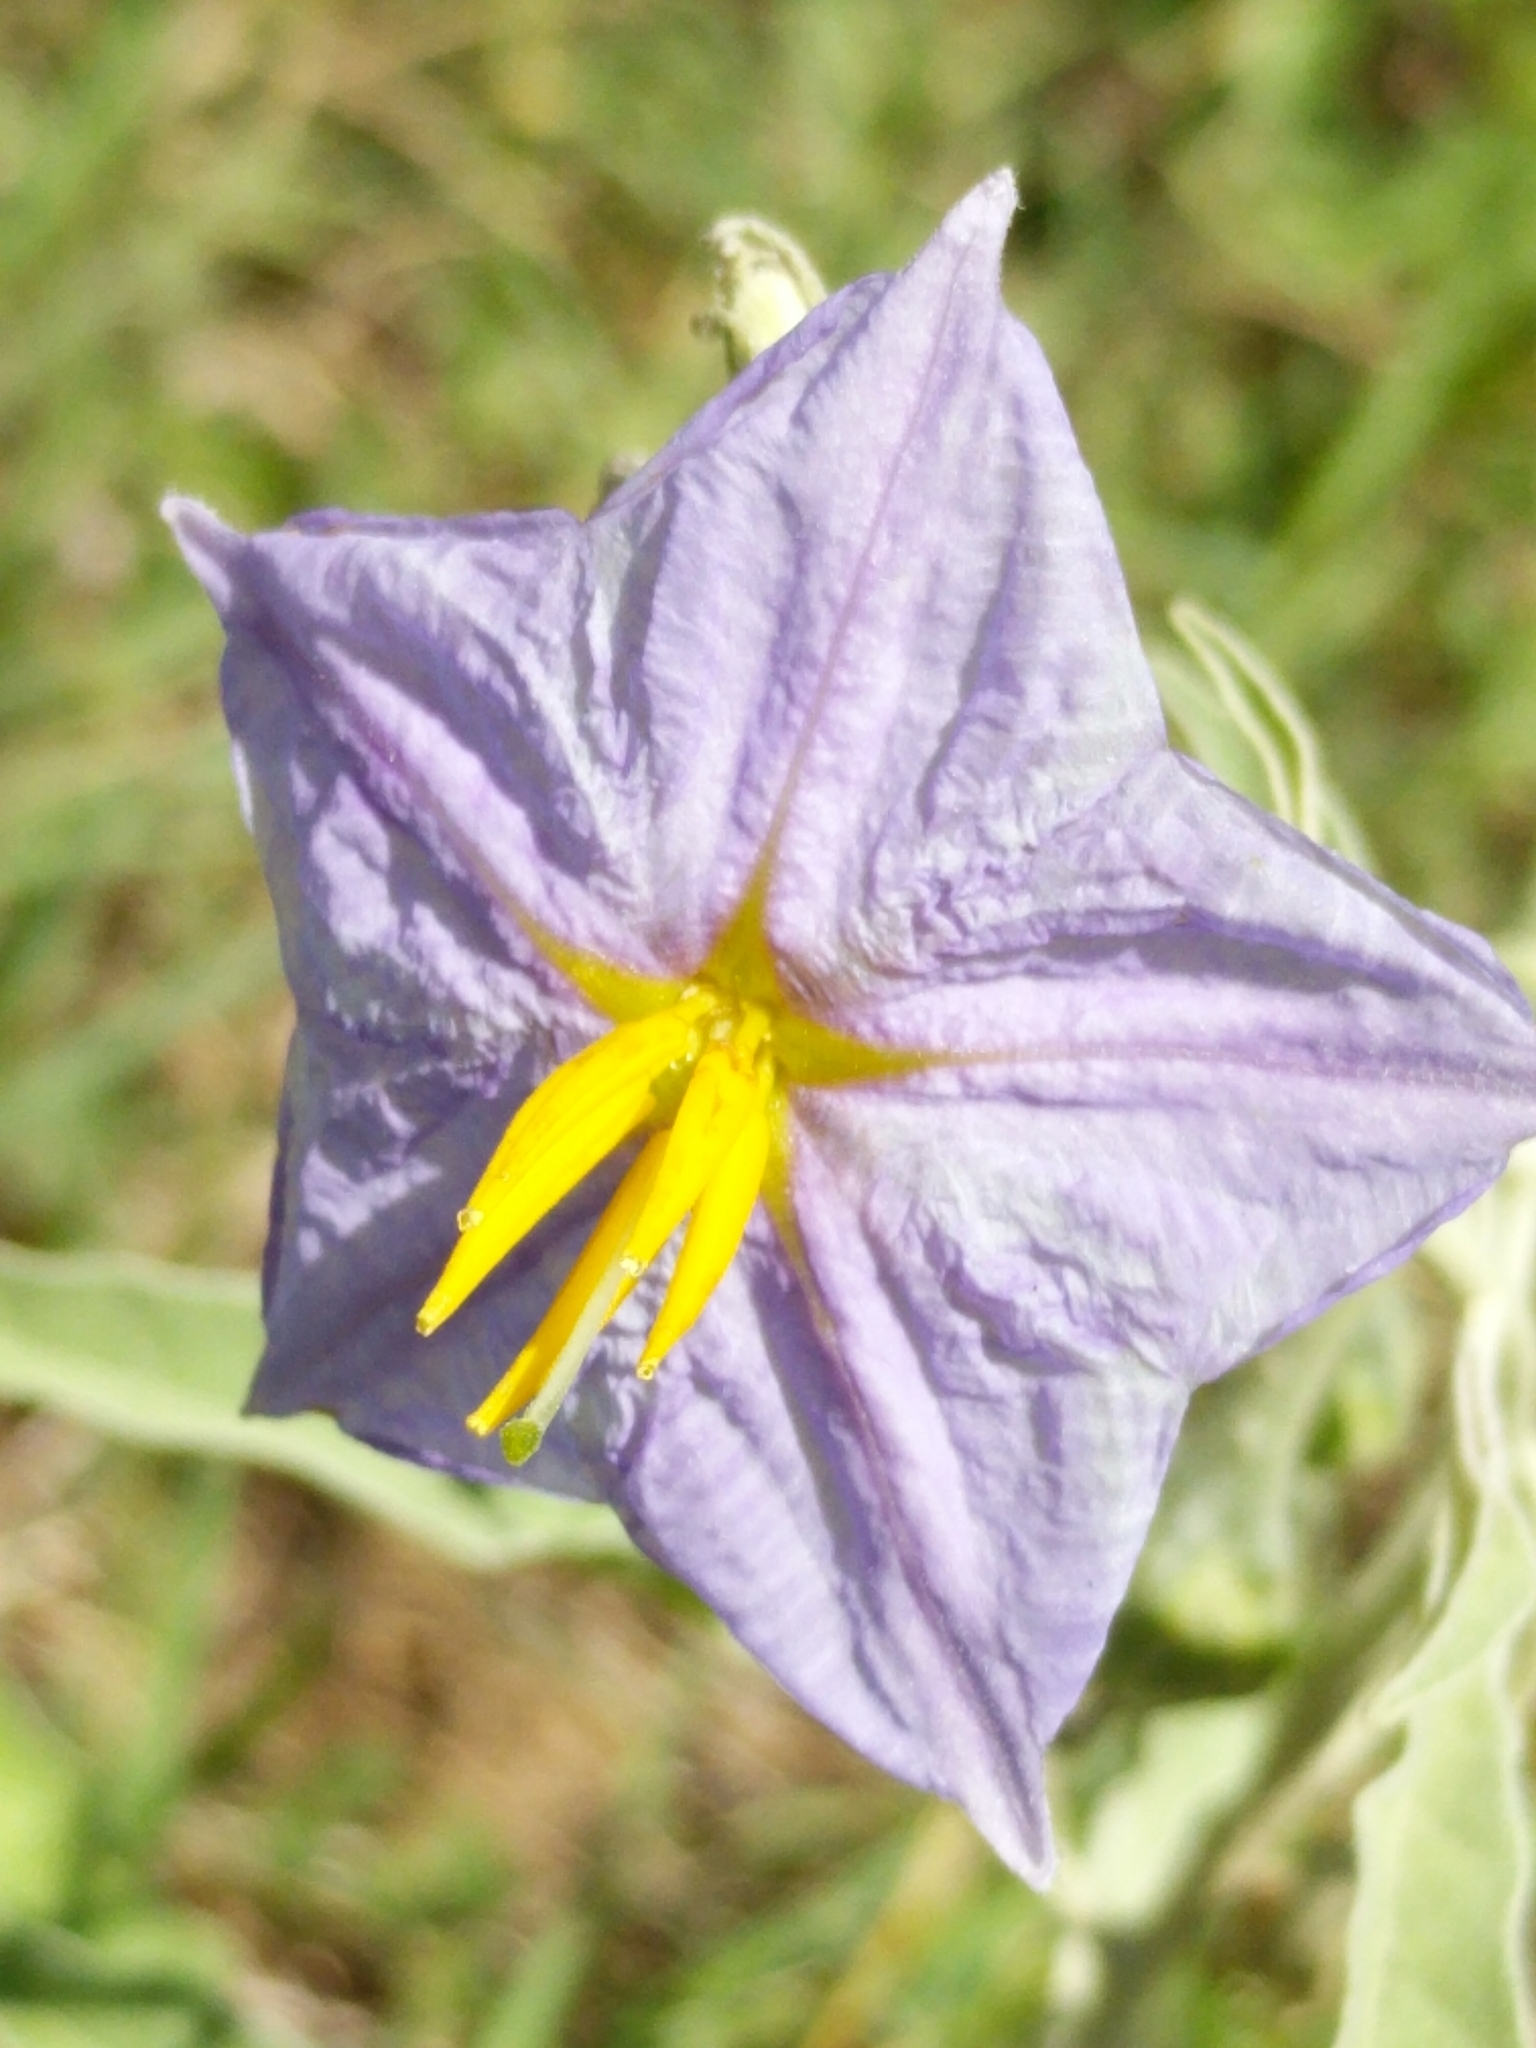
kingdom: Plantae
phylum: Tracheophyta
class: Magnoliopsida
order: Solanales
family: Solanaceae
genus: Solanum
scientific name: Solanum elaeagnifolium
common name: Silverleaf nightshade
